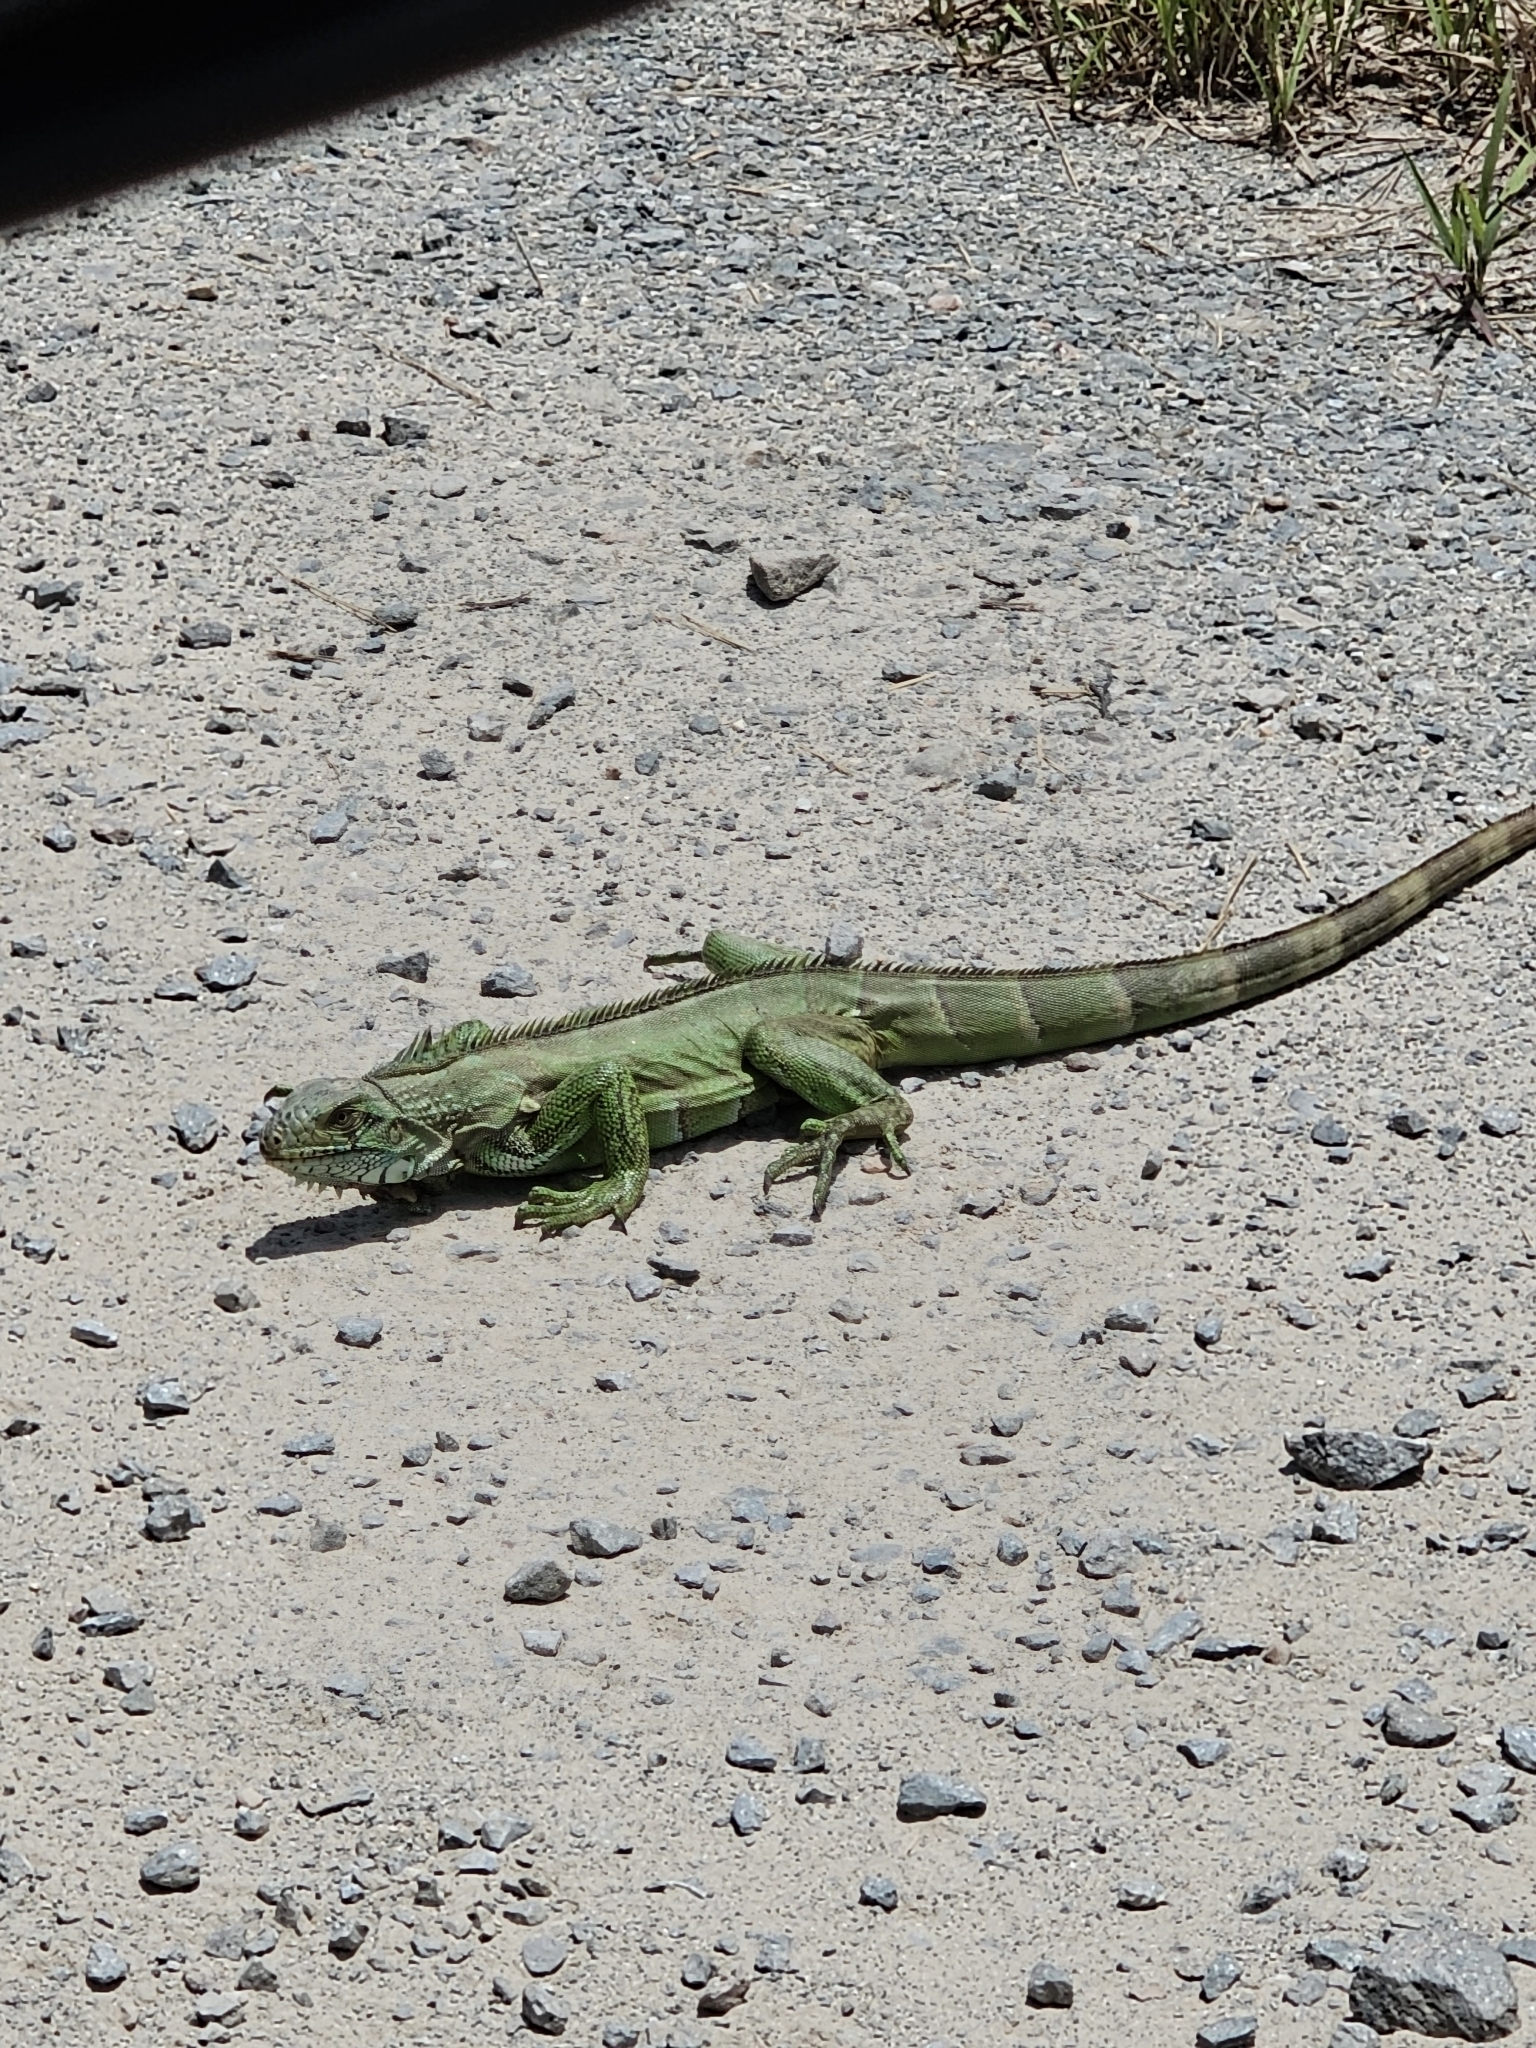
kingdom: Animalia
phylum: Chordata
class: Squamata
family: Iguanidae
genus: Iguana
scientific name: Iguana iguana
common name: Green iguana
